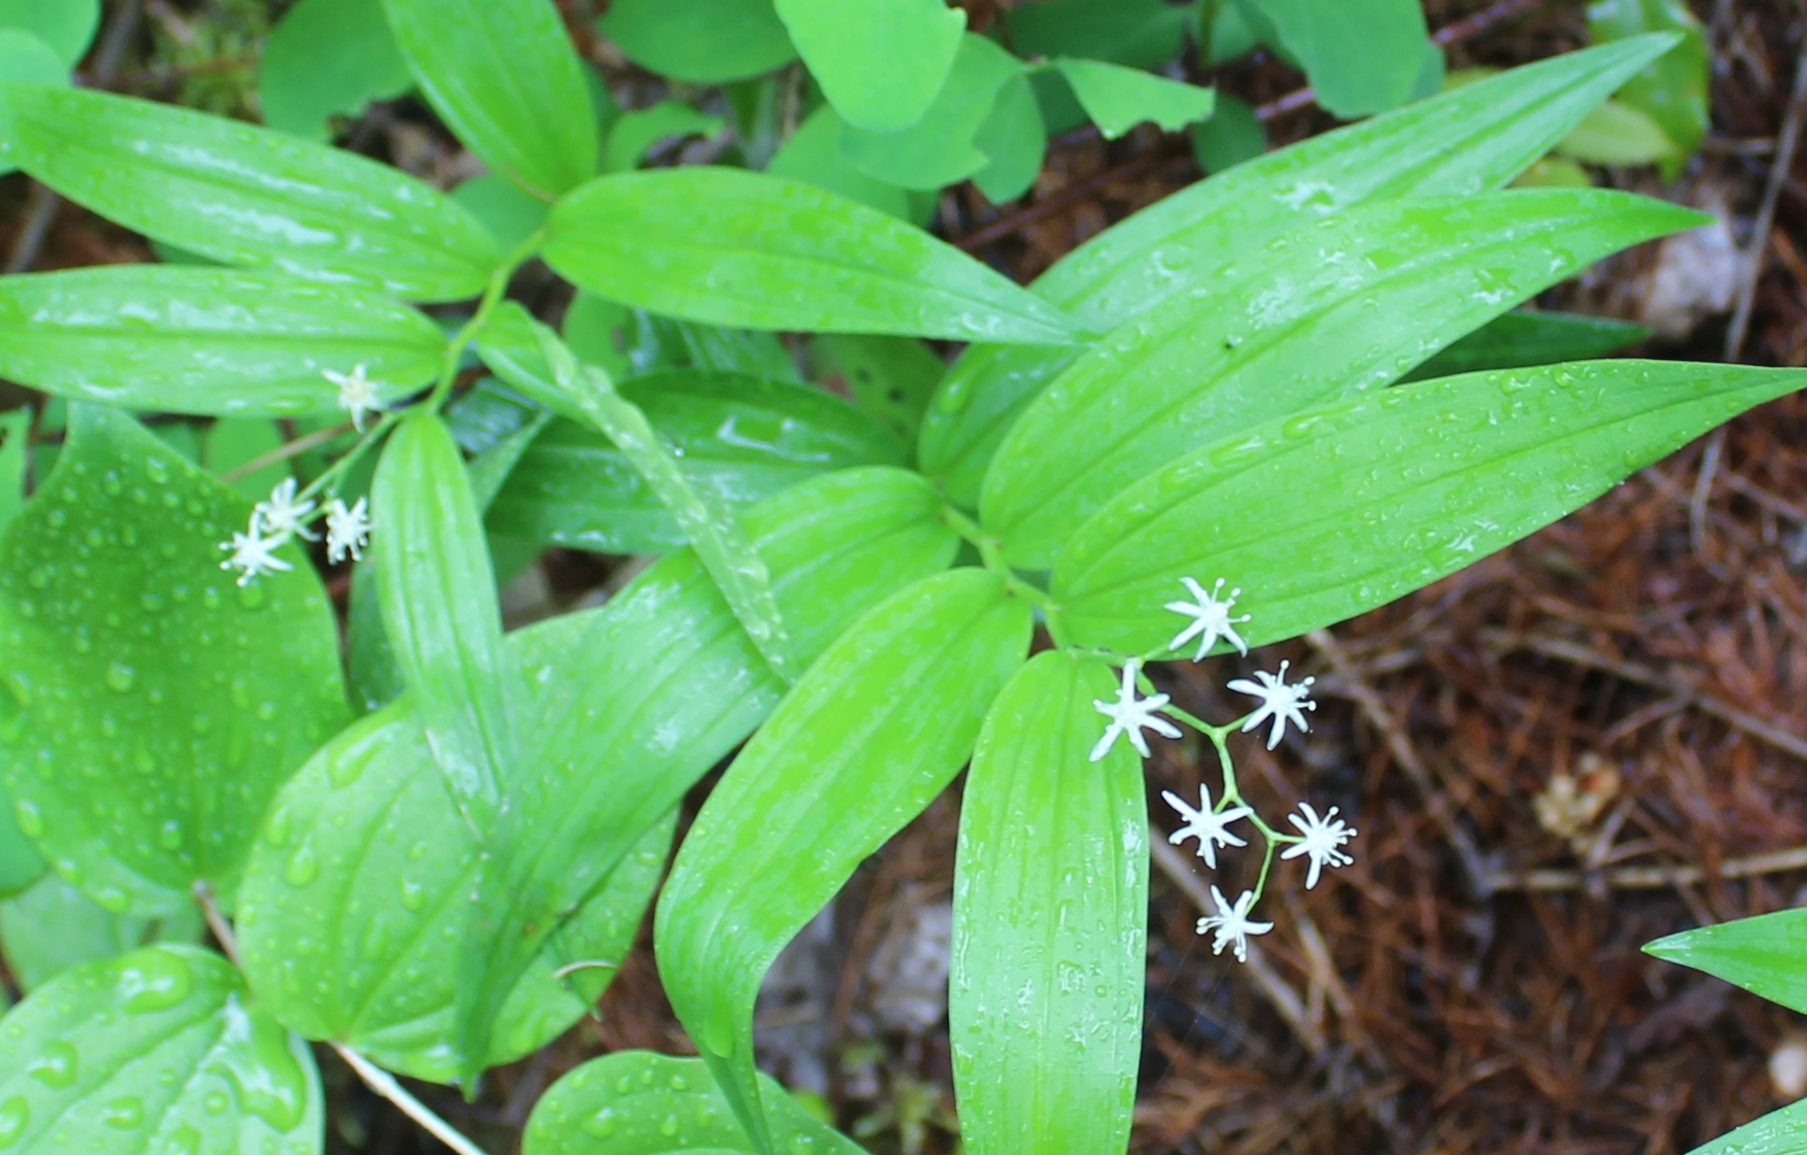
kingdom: Plantae
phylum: Tracheophyta
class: Liliopsida
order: Asparagales
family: Asparagaceae
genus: Maianthemum
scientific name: Maianthemum stellatum
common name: Little false solomon's seal
